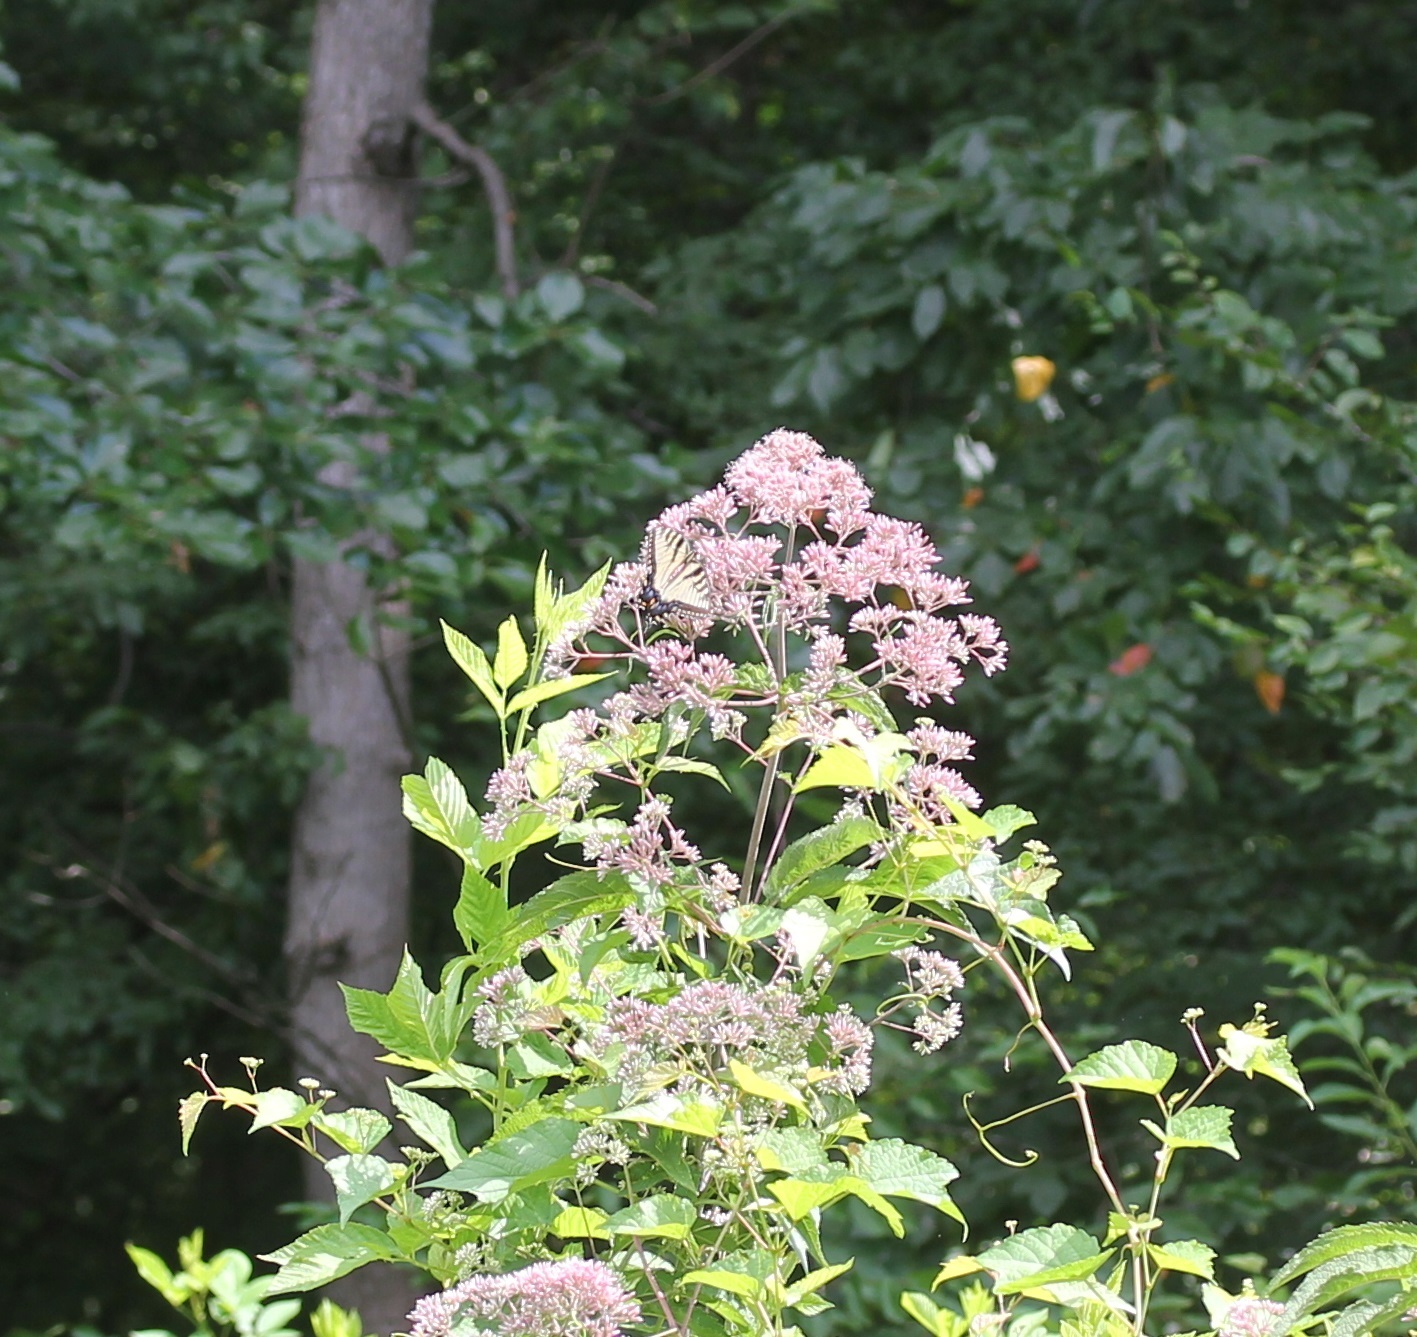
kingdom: Animalia
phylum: Arthropoda
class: Insecta
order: Lepidoptera
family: Papilionidae
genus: Papilio
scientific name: Papilio glaucus
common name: Tiger swallowtail
